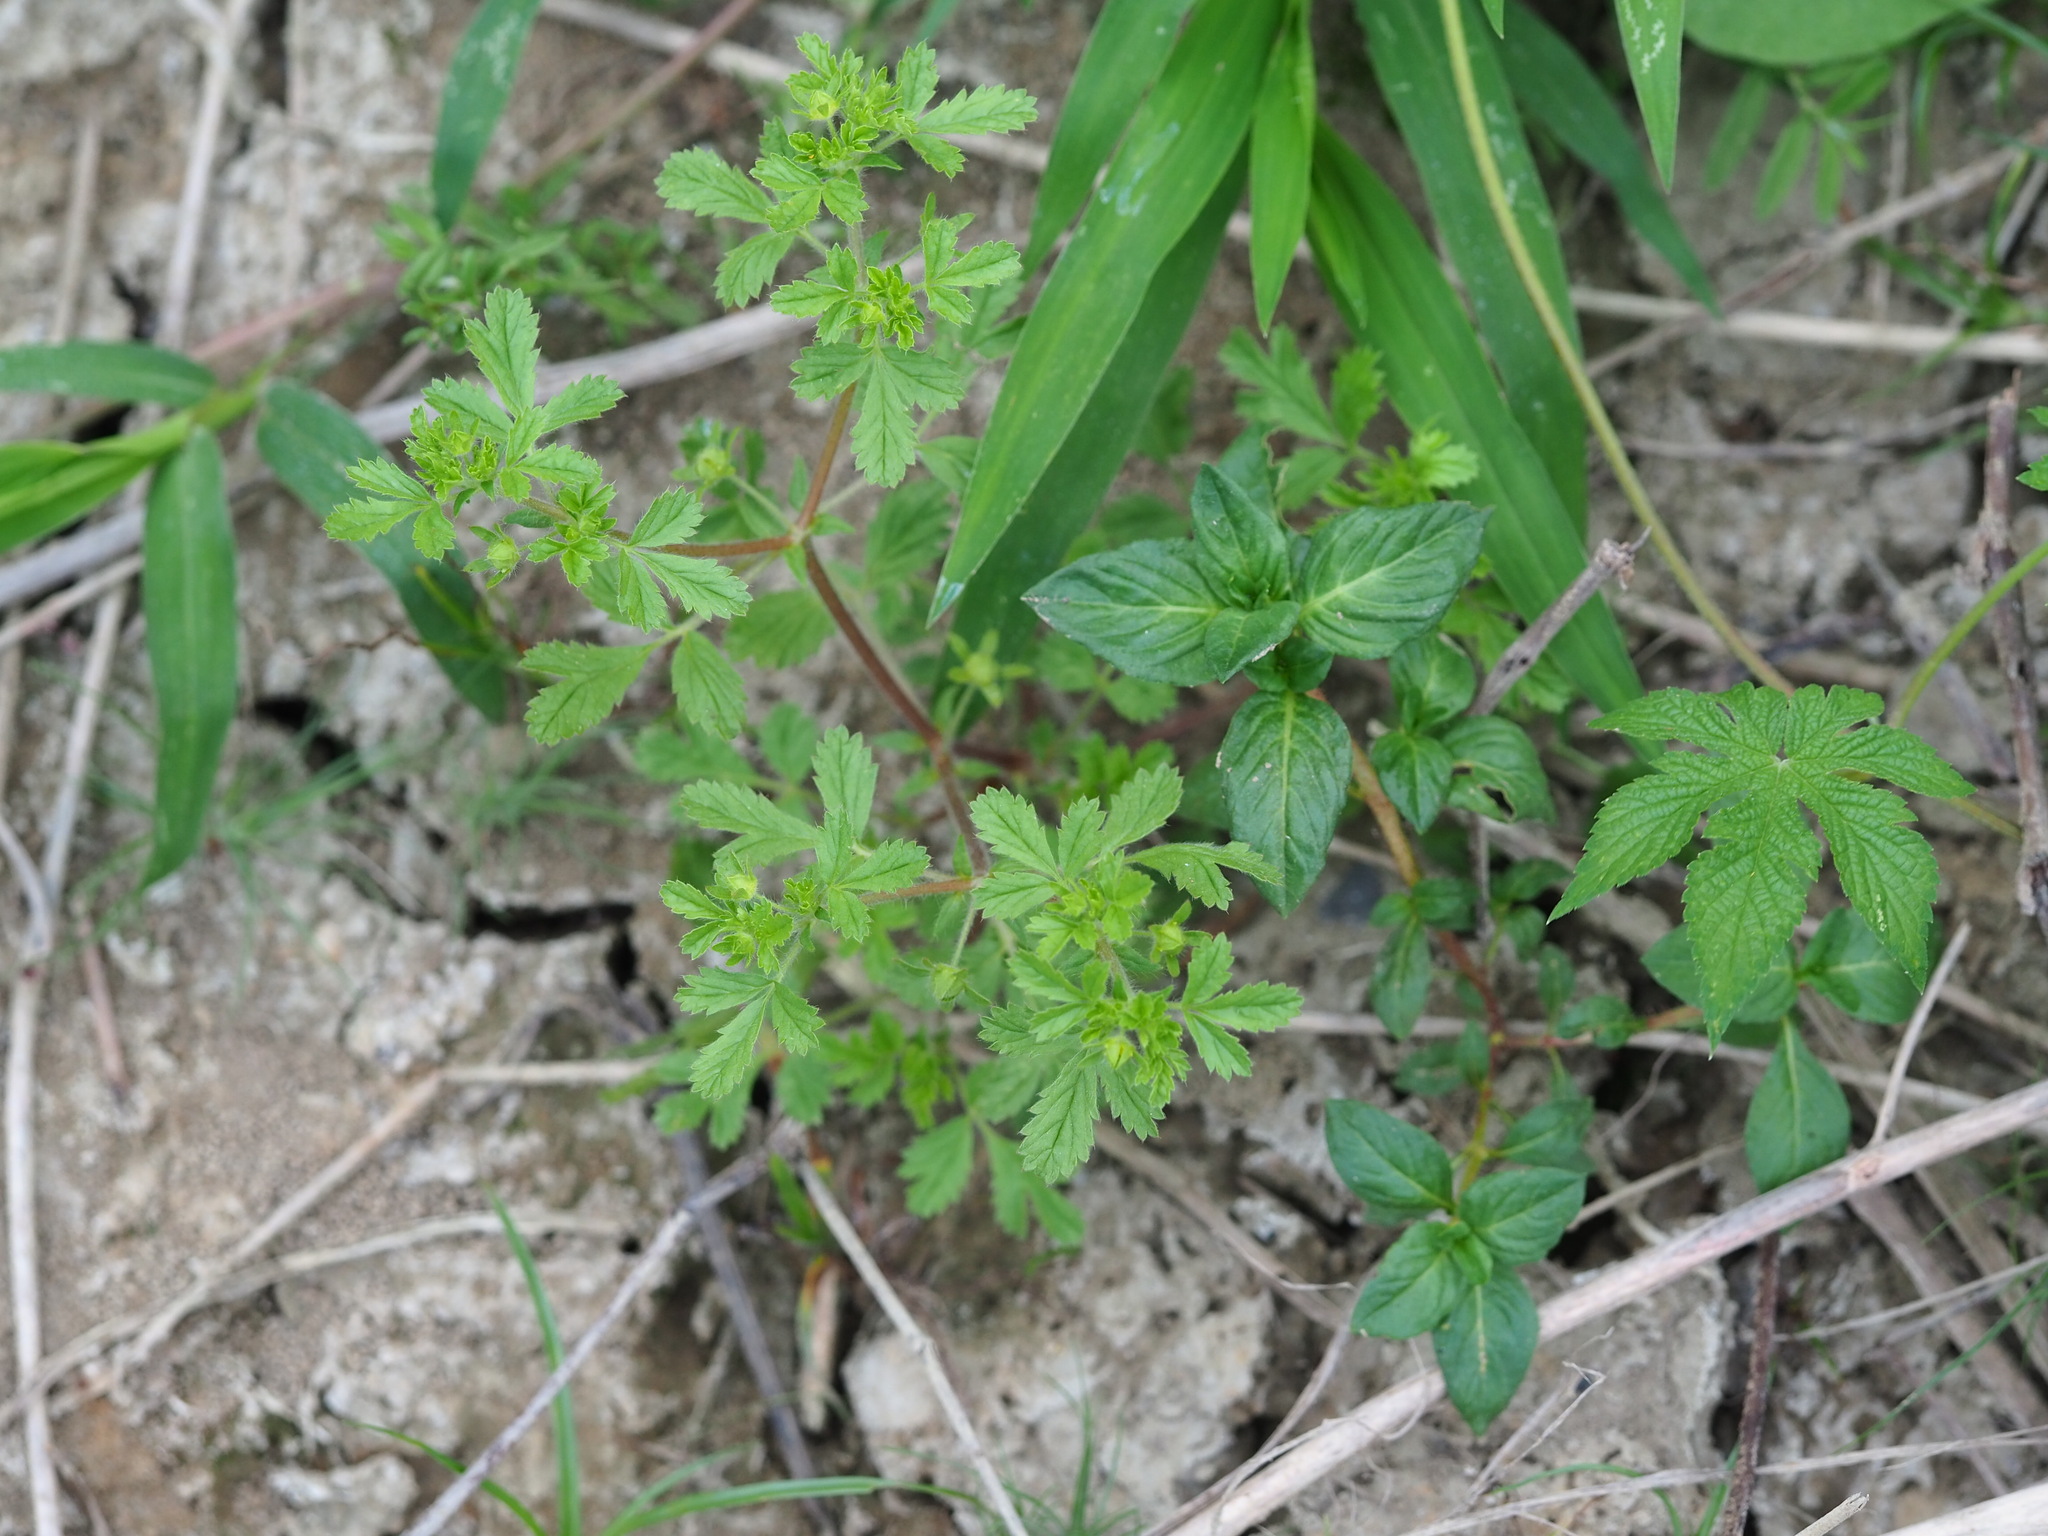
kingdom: Plantae
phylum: Tracheophyta
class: Magnoliopsida
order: Rosales
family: Rosaceae
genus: Potentilla
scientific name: Potentilla heynei
